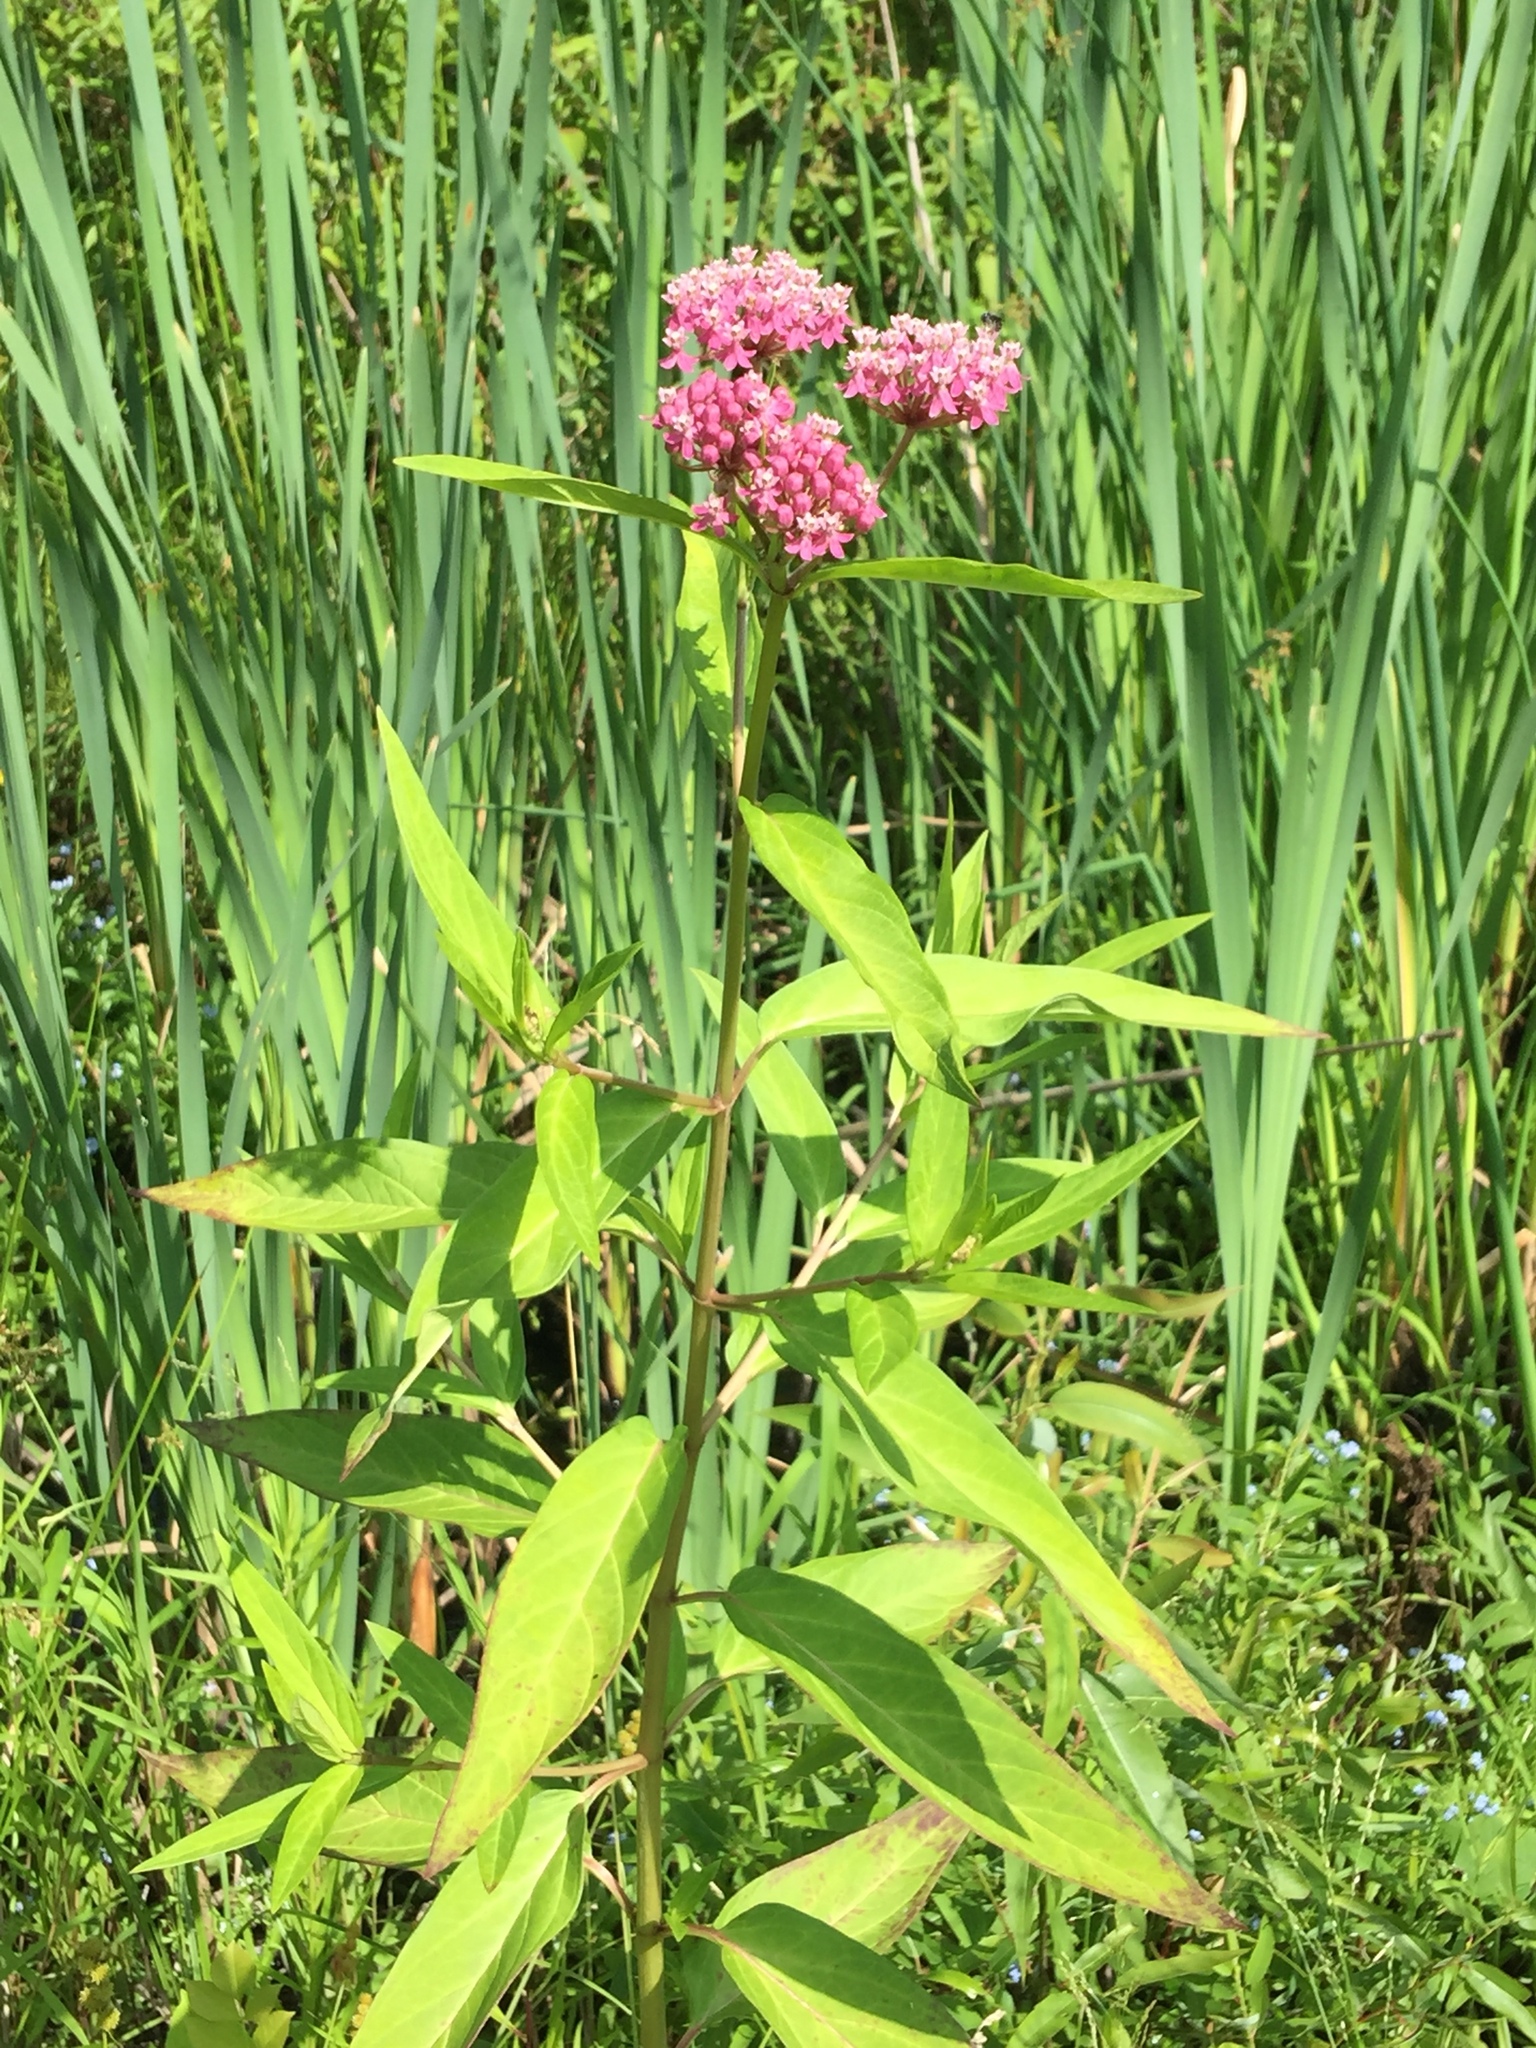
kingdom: Plantae
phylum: Tracheophyta
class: Magnoliopsida
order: Gentianales
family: Apocynaceae
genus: Asclepias
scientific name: Asclepias incarnata
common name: Swamp milkweed
